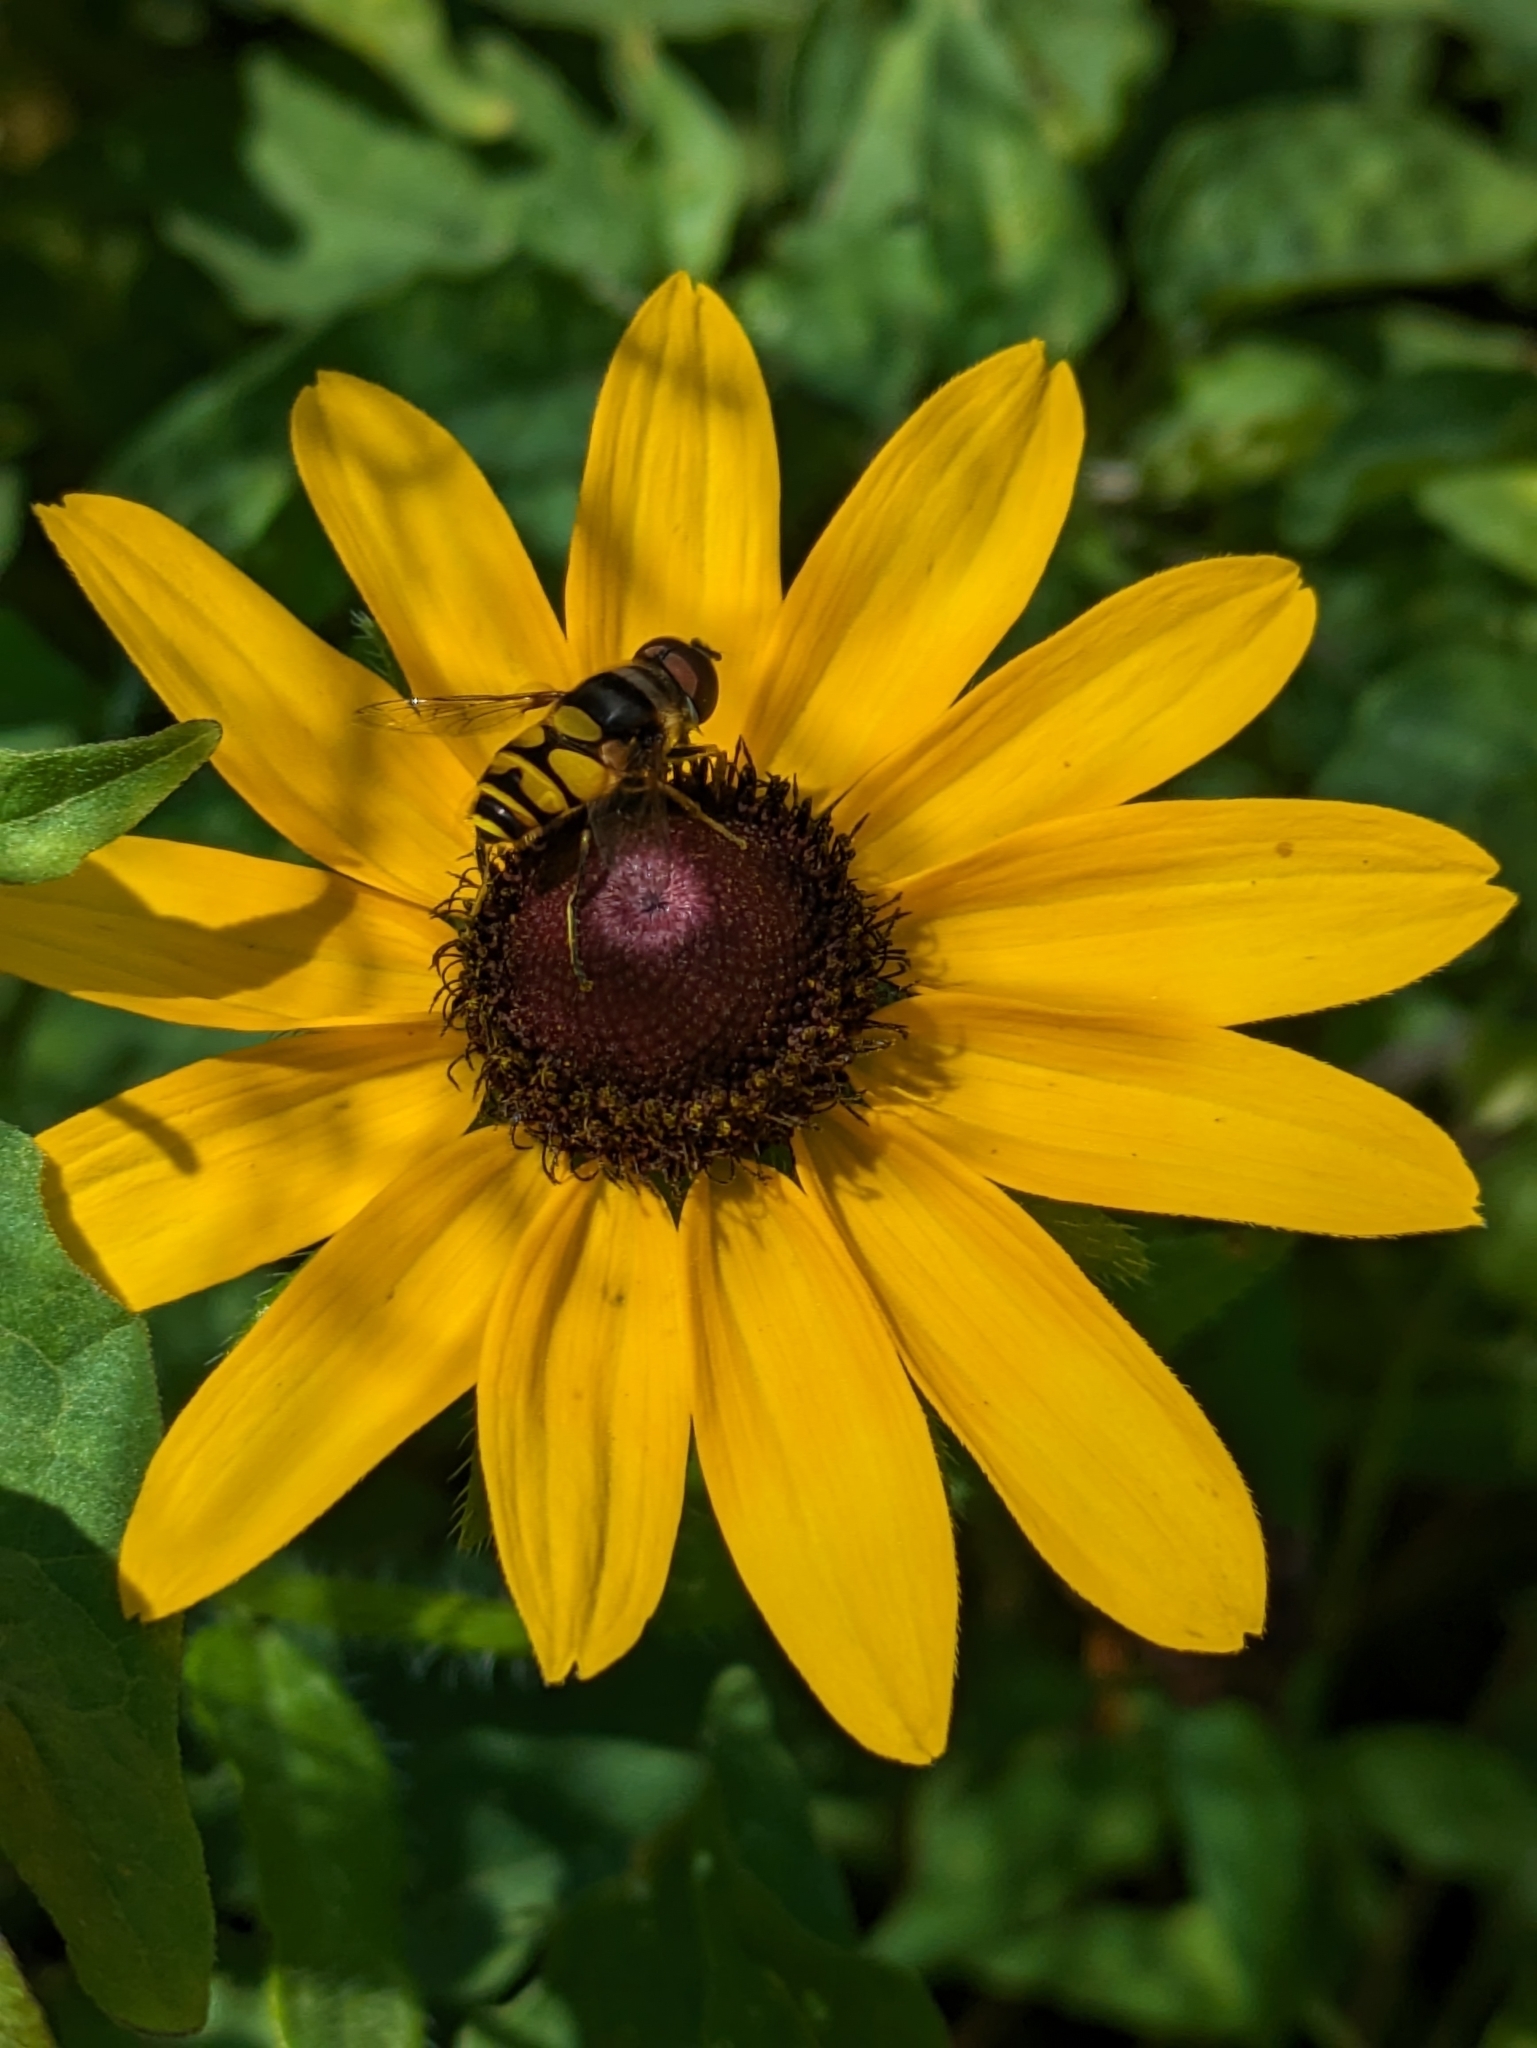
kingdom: Animalia
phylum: Arthropoda
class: Insecta
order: Diptera
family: Syrphidae
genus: Eristalis
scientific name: Eristalis transversa
